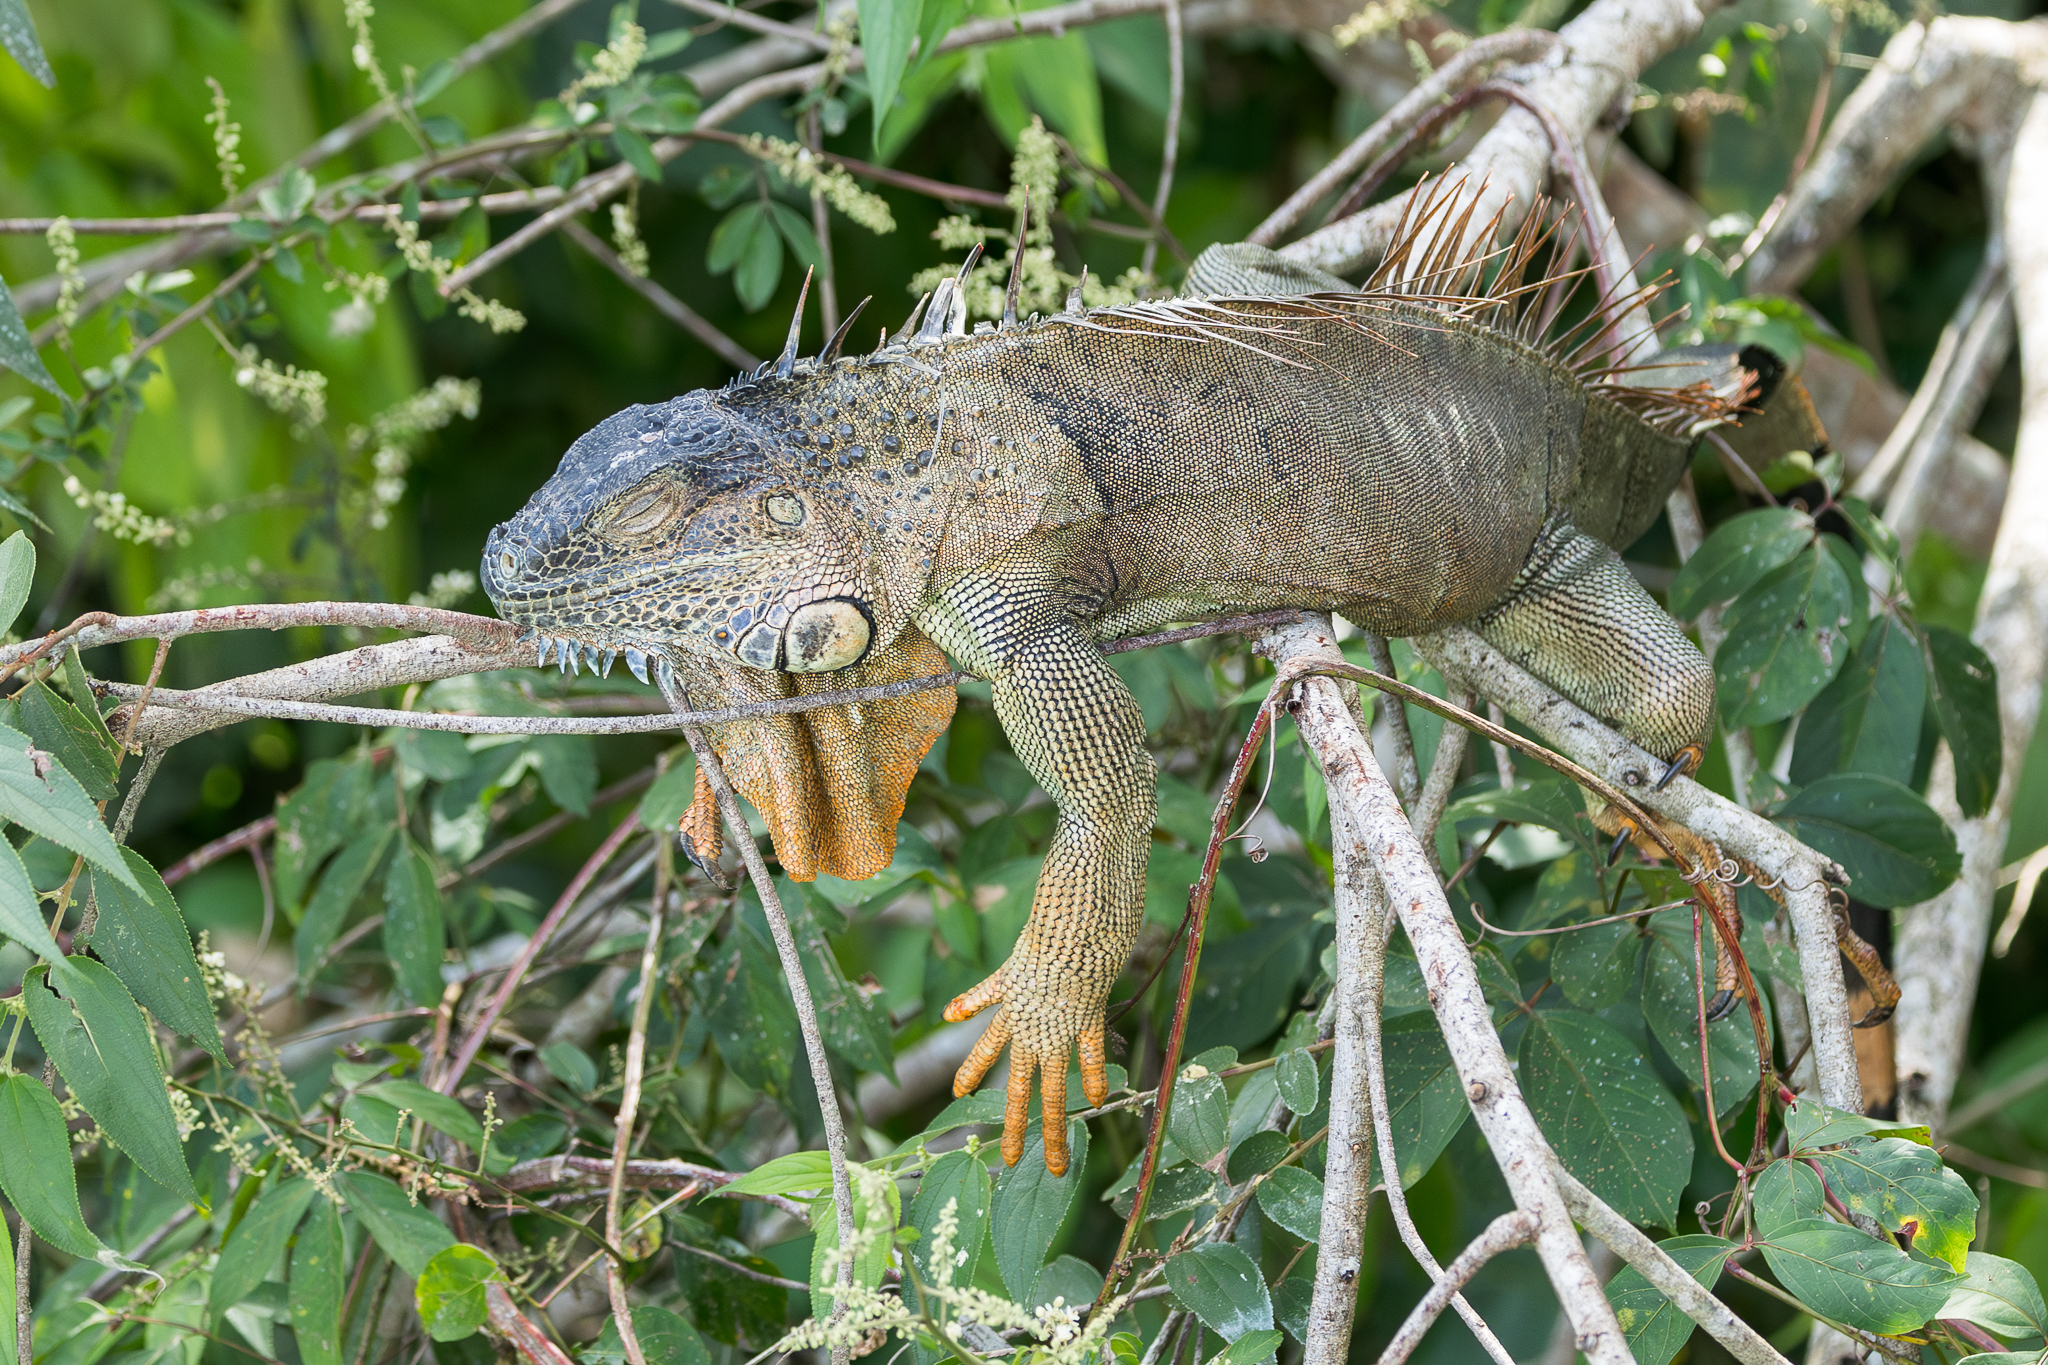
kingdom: Animalia
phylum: Chordata
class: Squamata
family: Iguanidae
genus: Iguana
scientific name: Iguana iguana
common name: Green iguana
